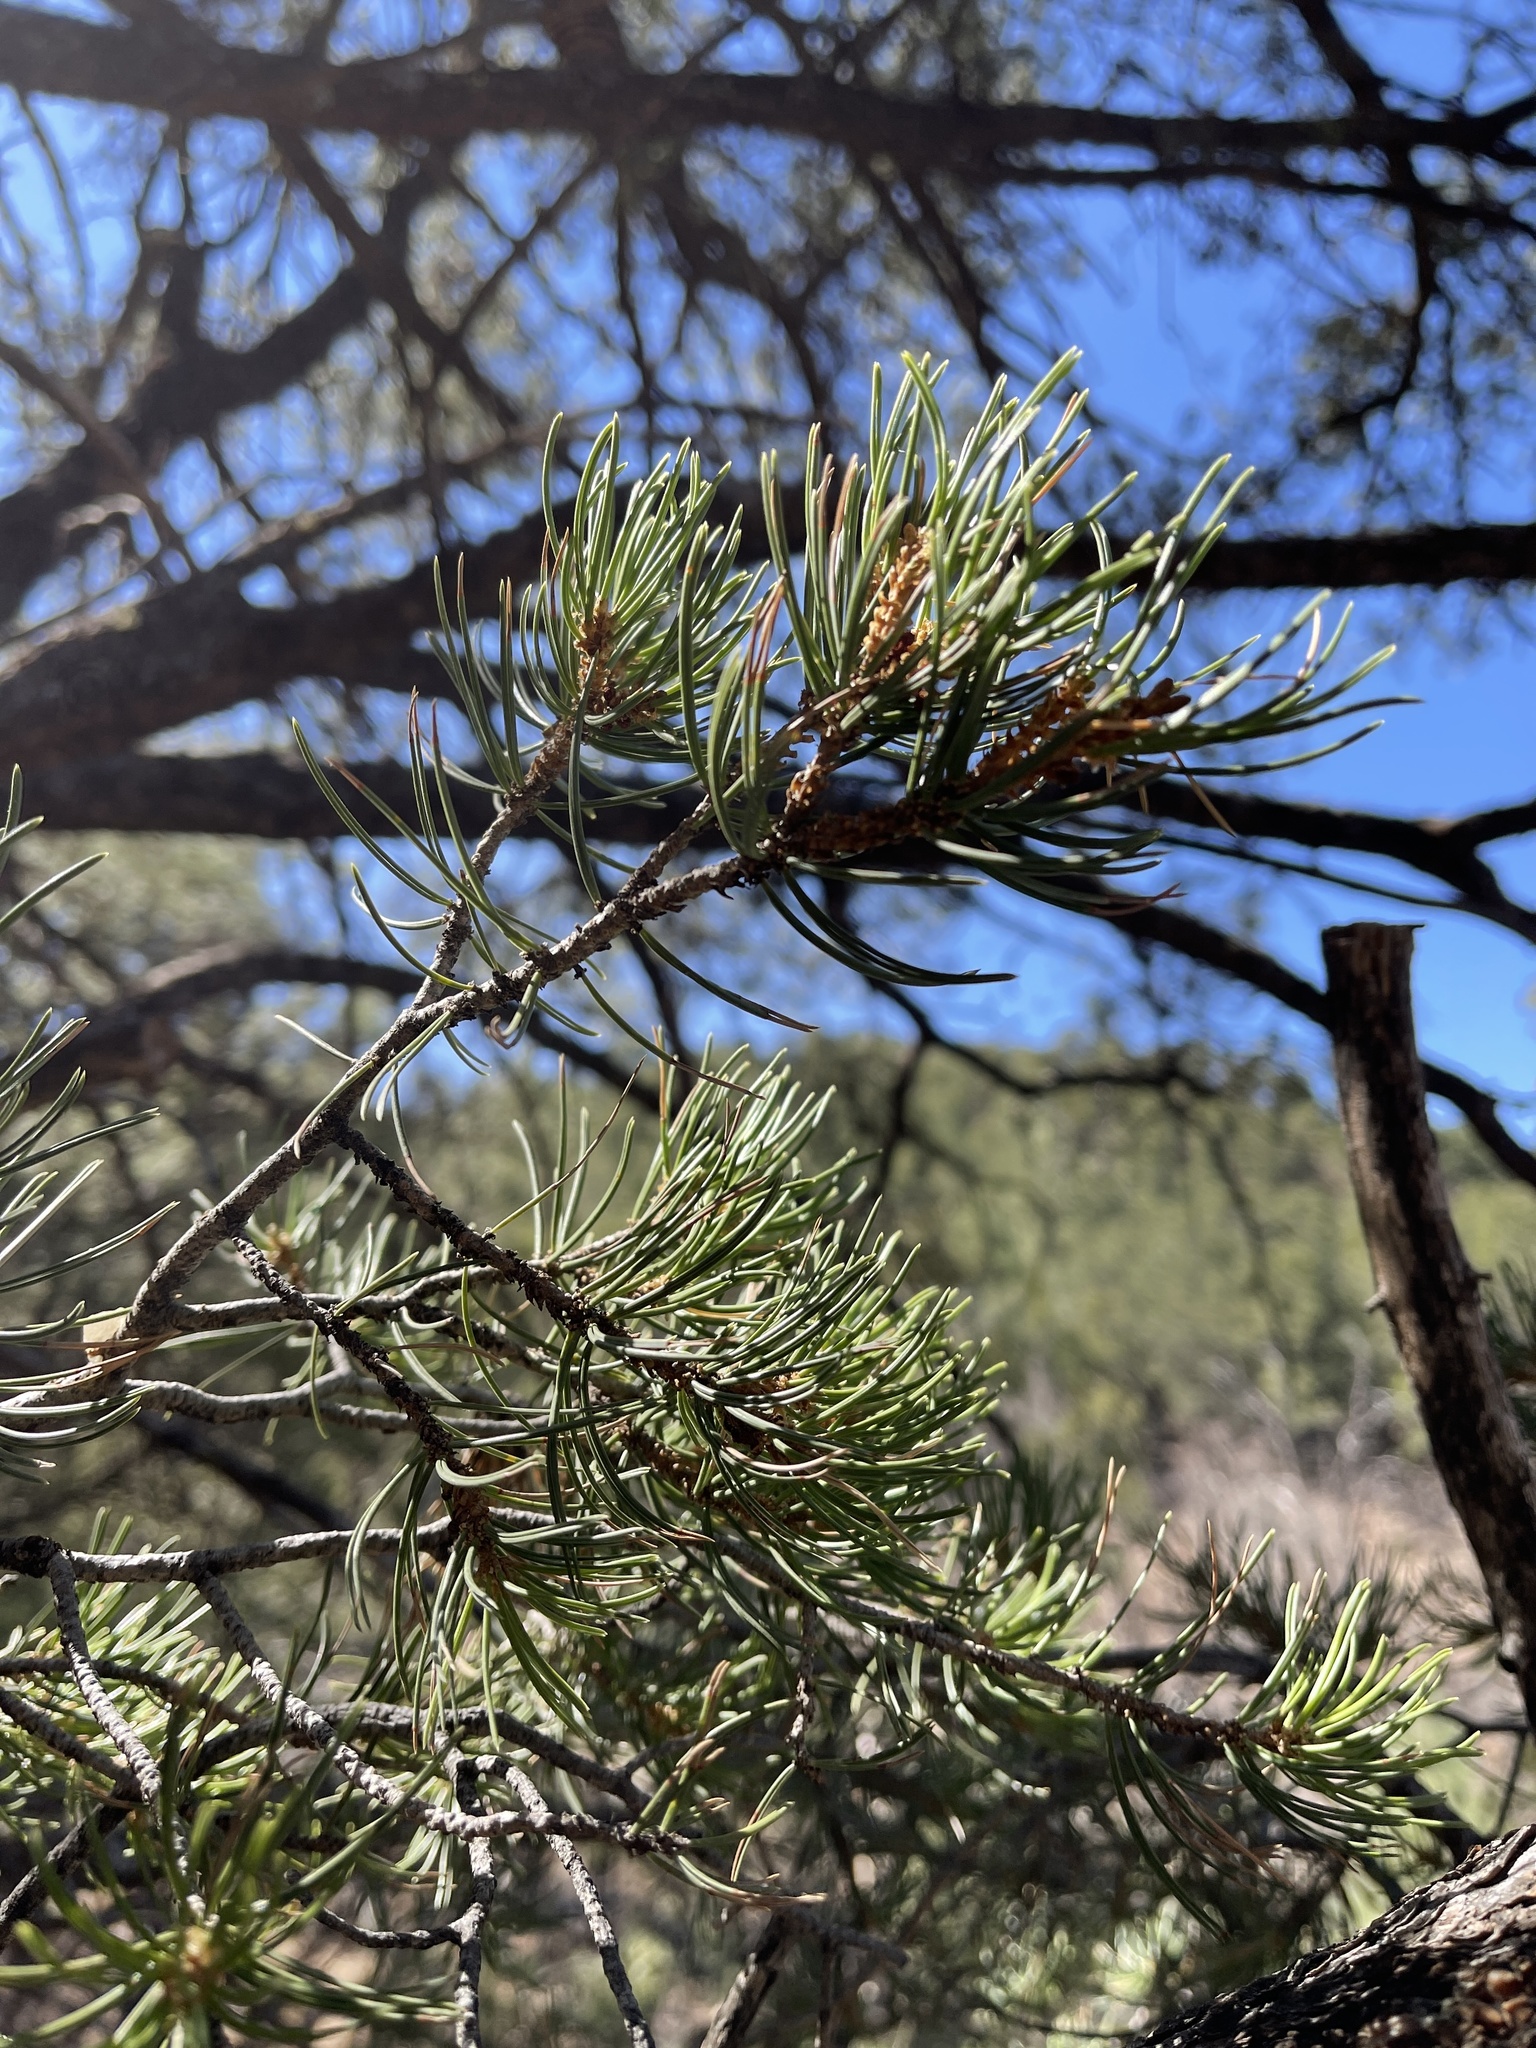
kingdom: Plantae
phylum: Tracheophyta
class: Pinopsida
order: Pinales
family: Pinaceae
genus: Pinus
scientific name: Pinus edulis
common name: Colorado pinyon
